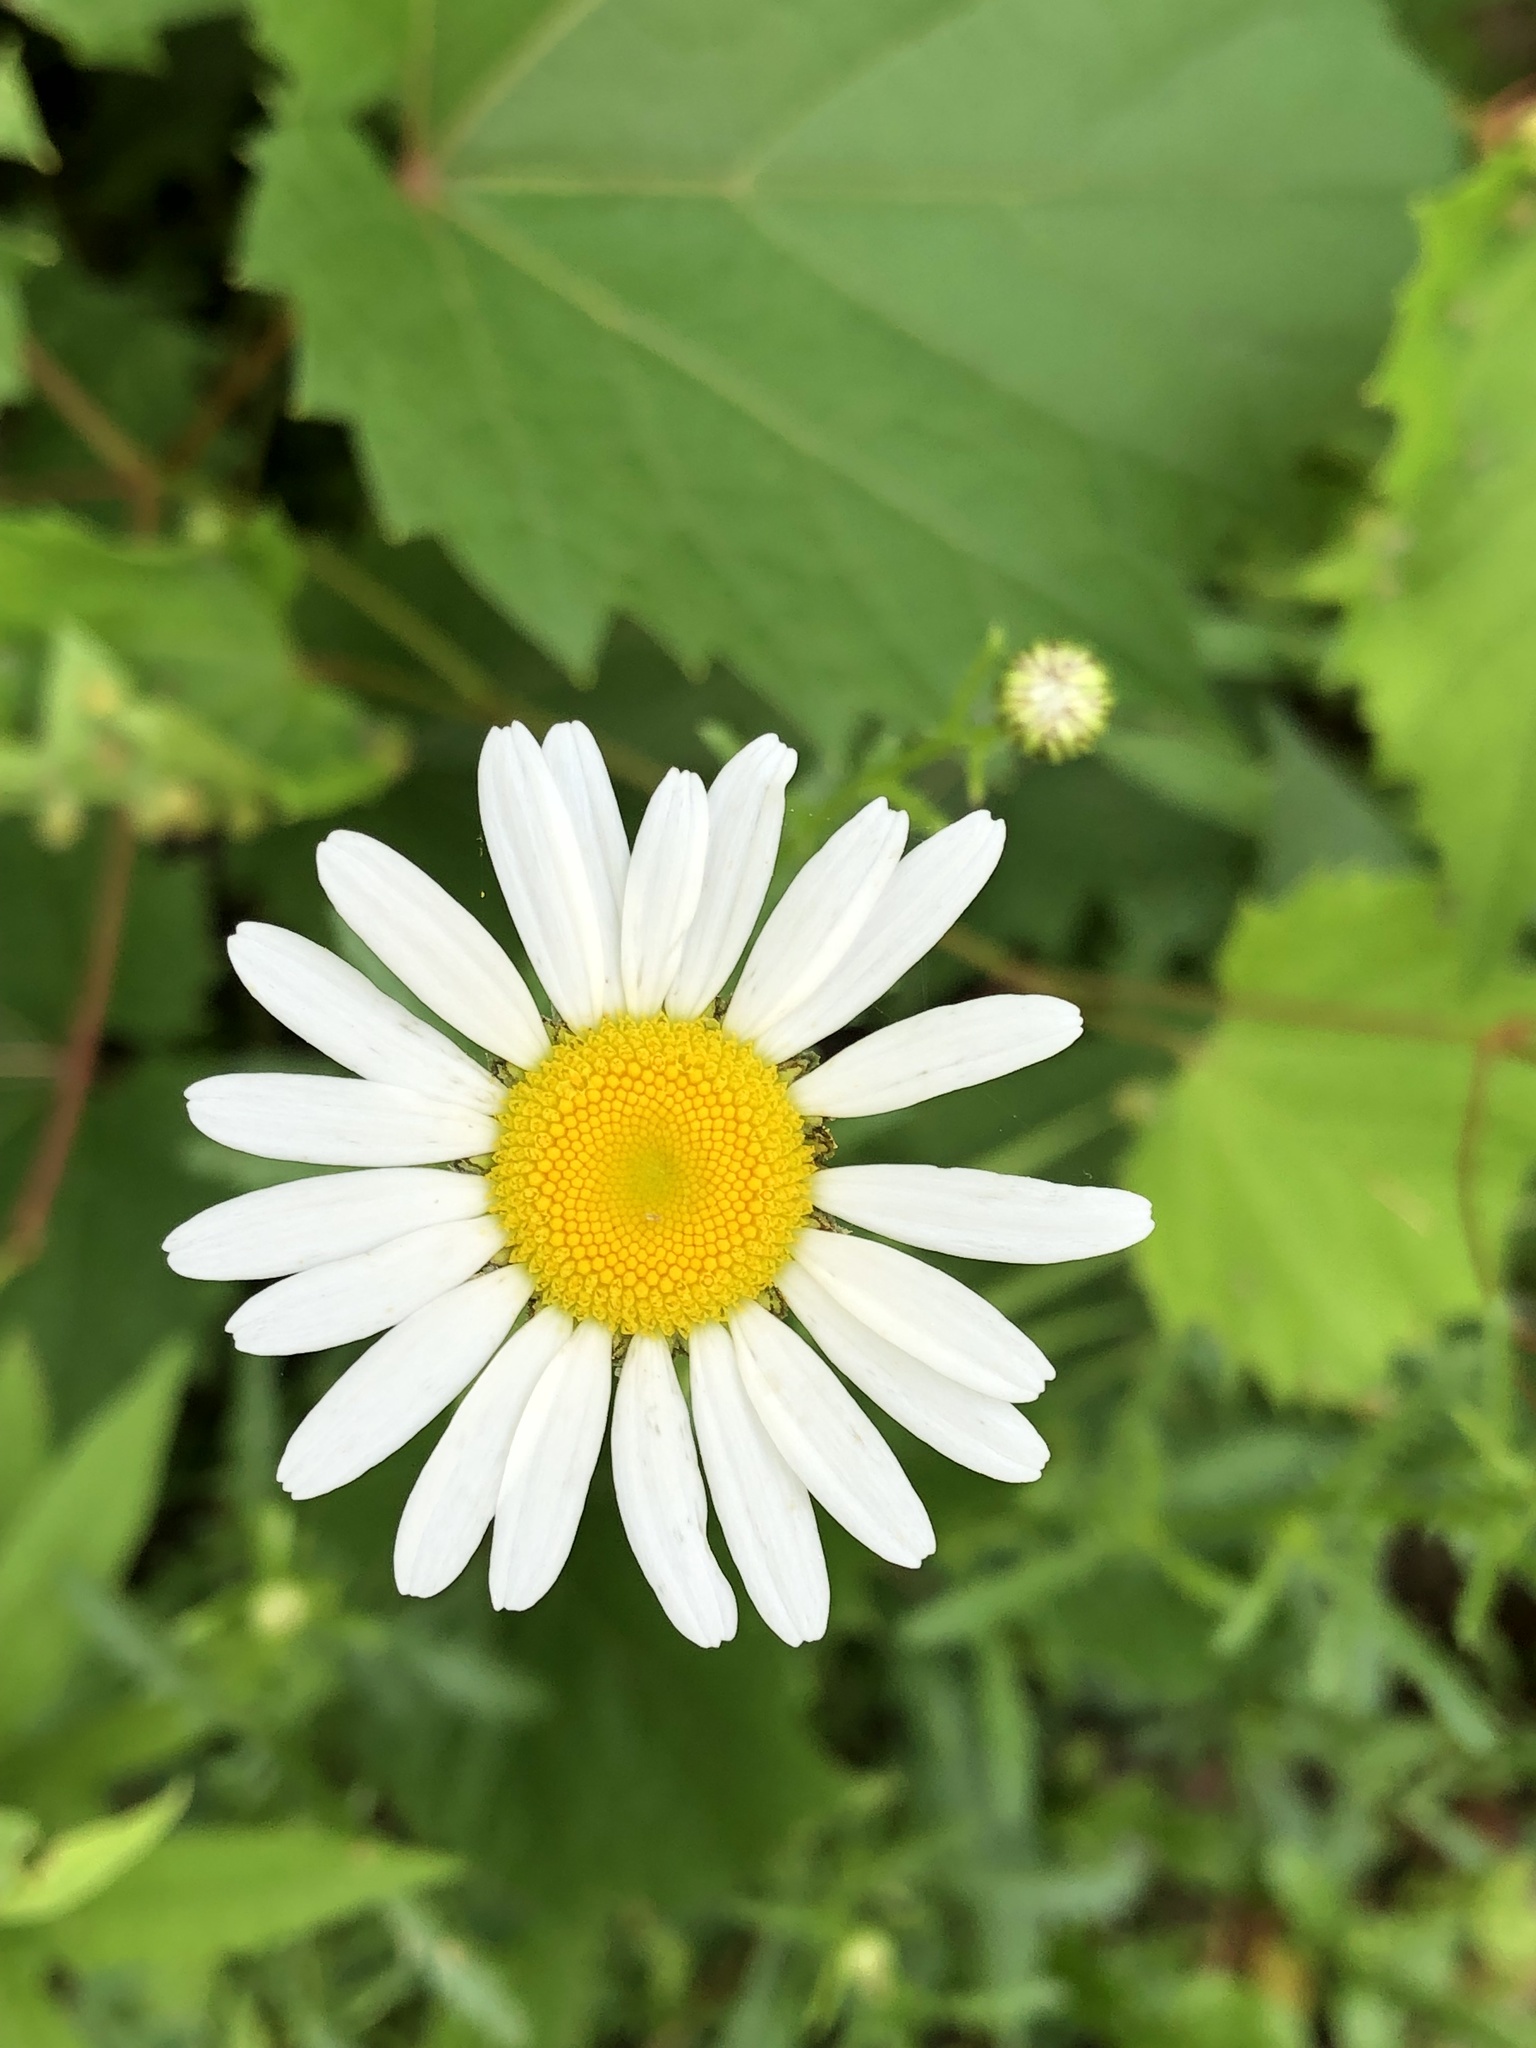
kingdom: Plantae
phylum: Tracheophyta
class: Magnoliopsida
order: Asterales
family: Asteraceae
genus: Leucanthemum
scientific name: Leucanthemum vulgare
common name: Oxeye daisy
